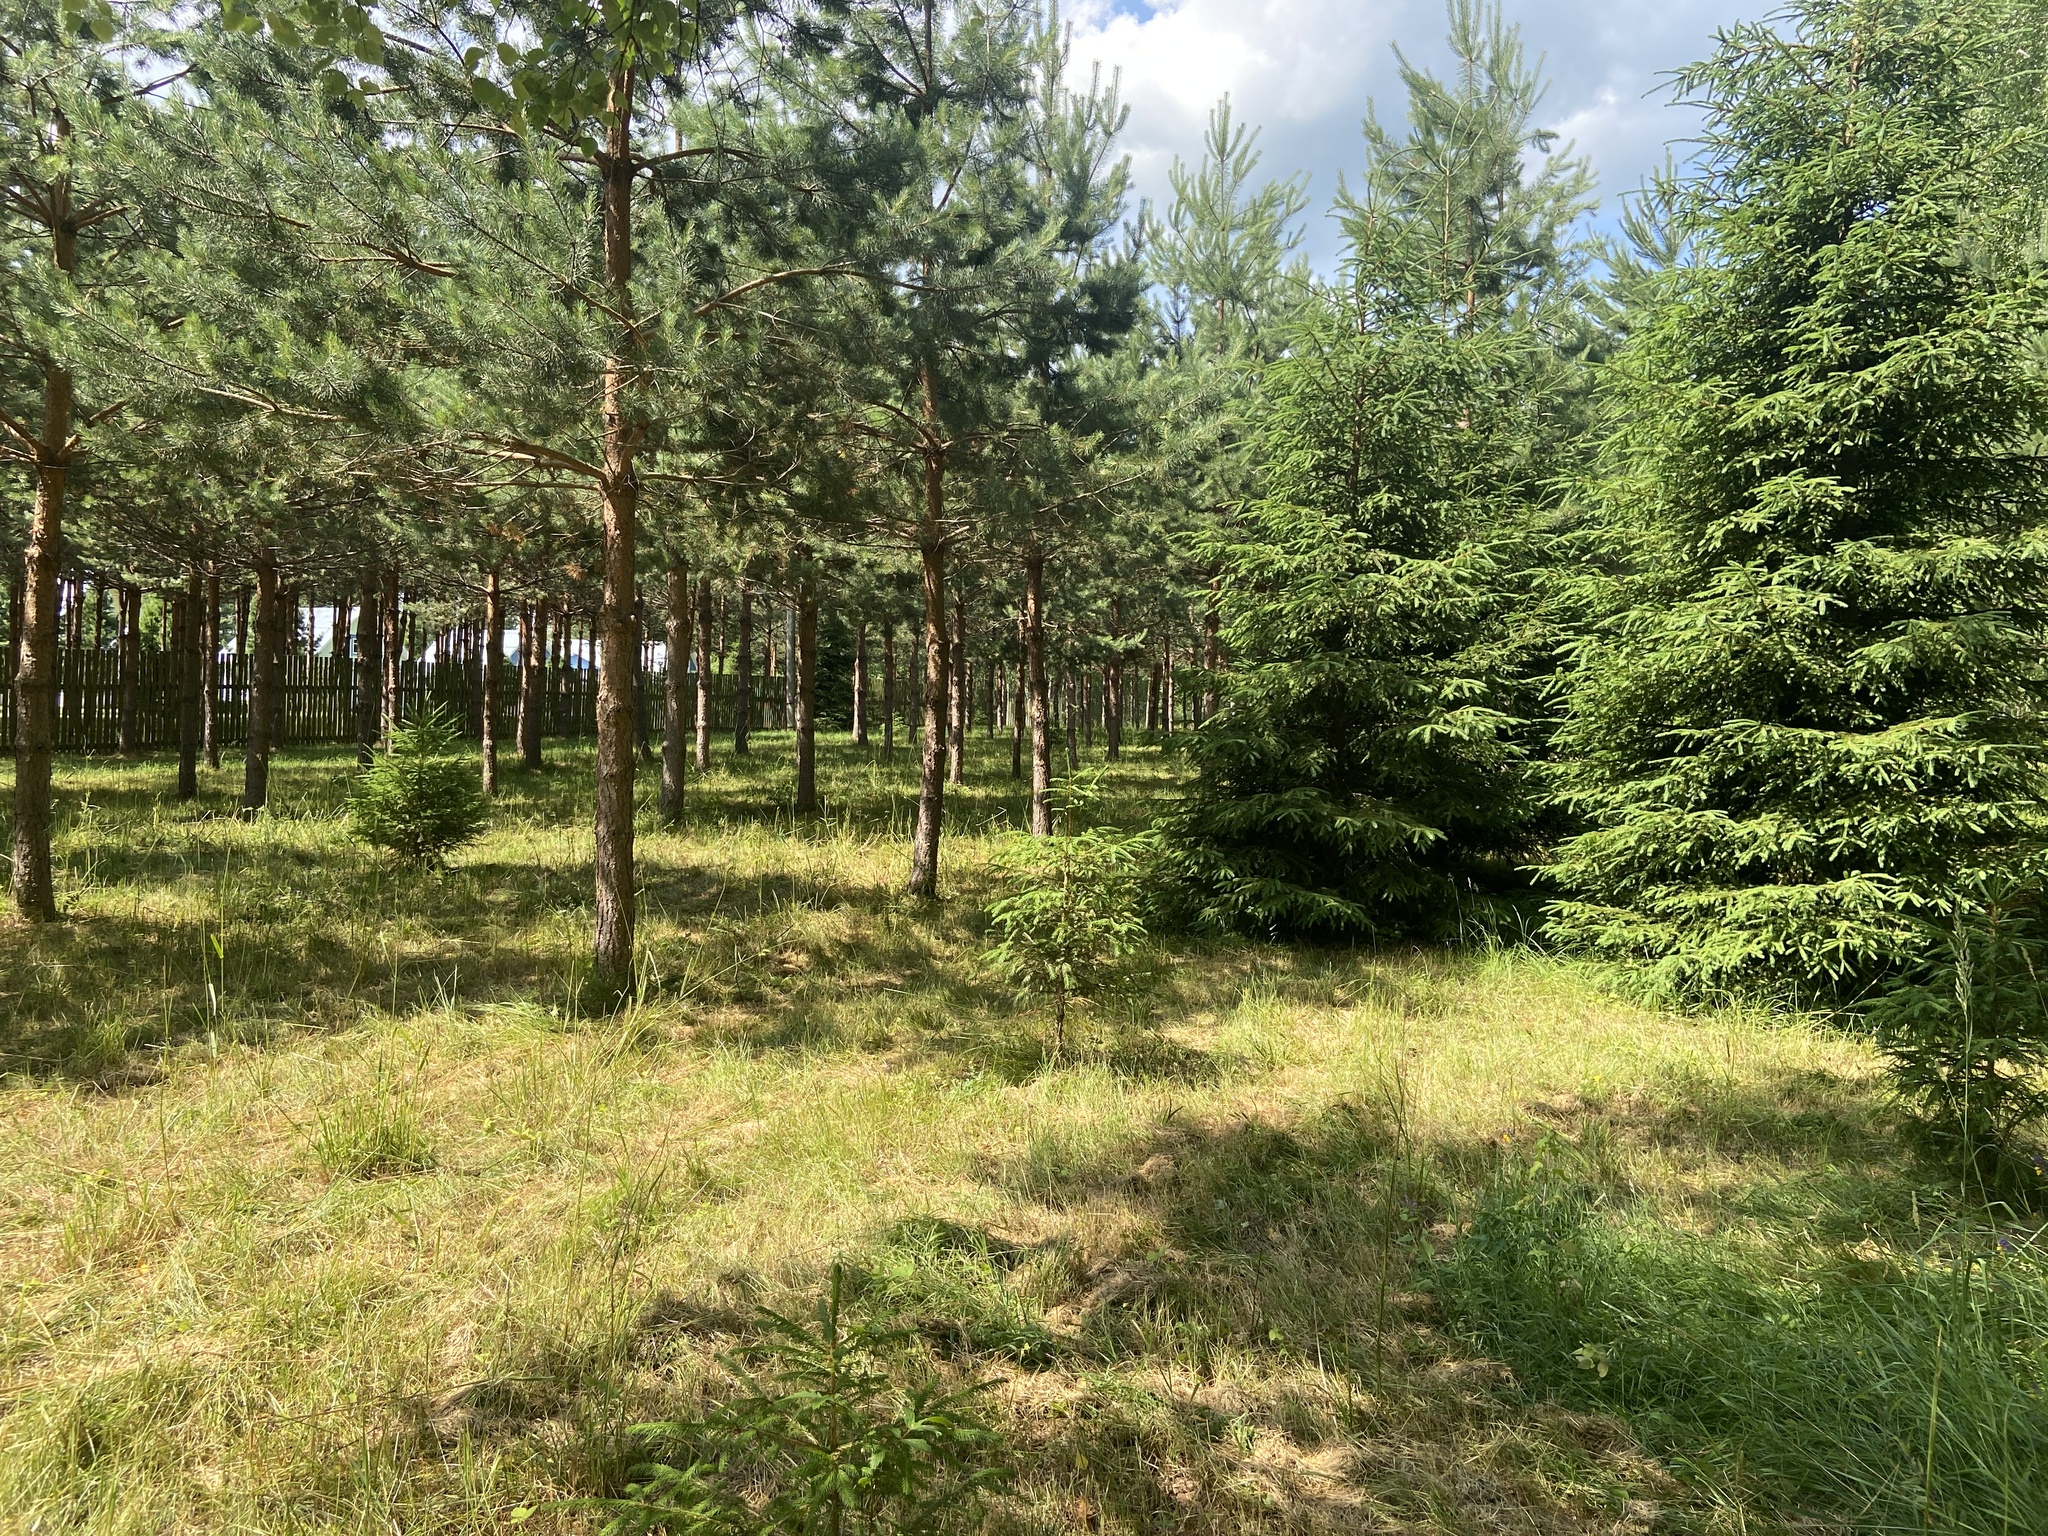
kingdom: Plantae
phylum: Tracheophyta
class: Pinopsida
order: Pinales
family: Pinaceae
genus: Pinus
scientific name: Pinus sylvestris
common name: Scots pine
